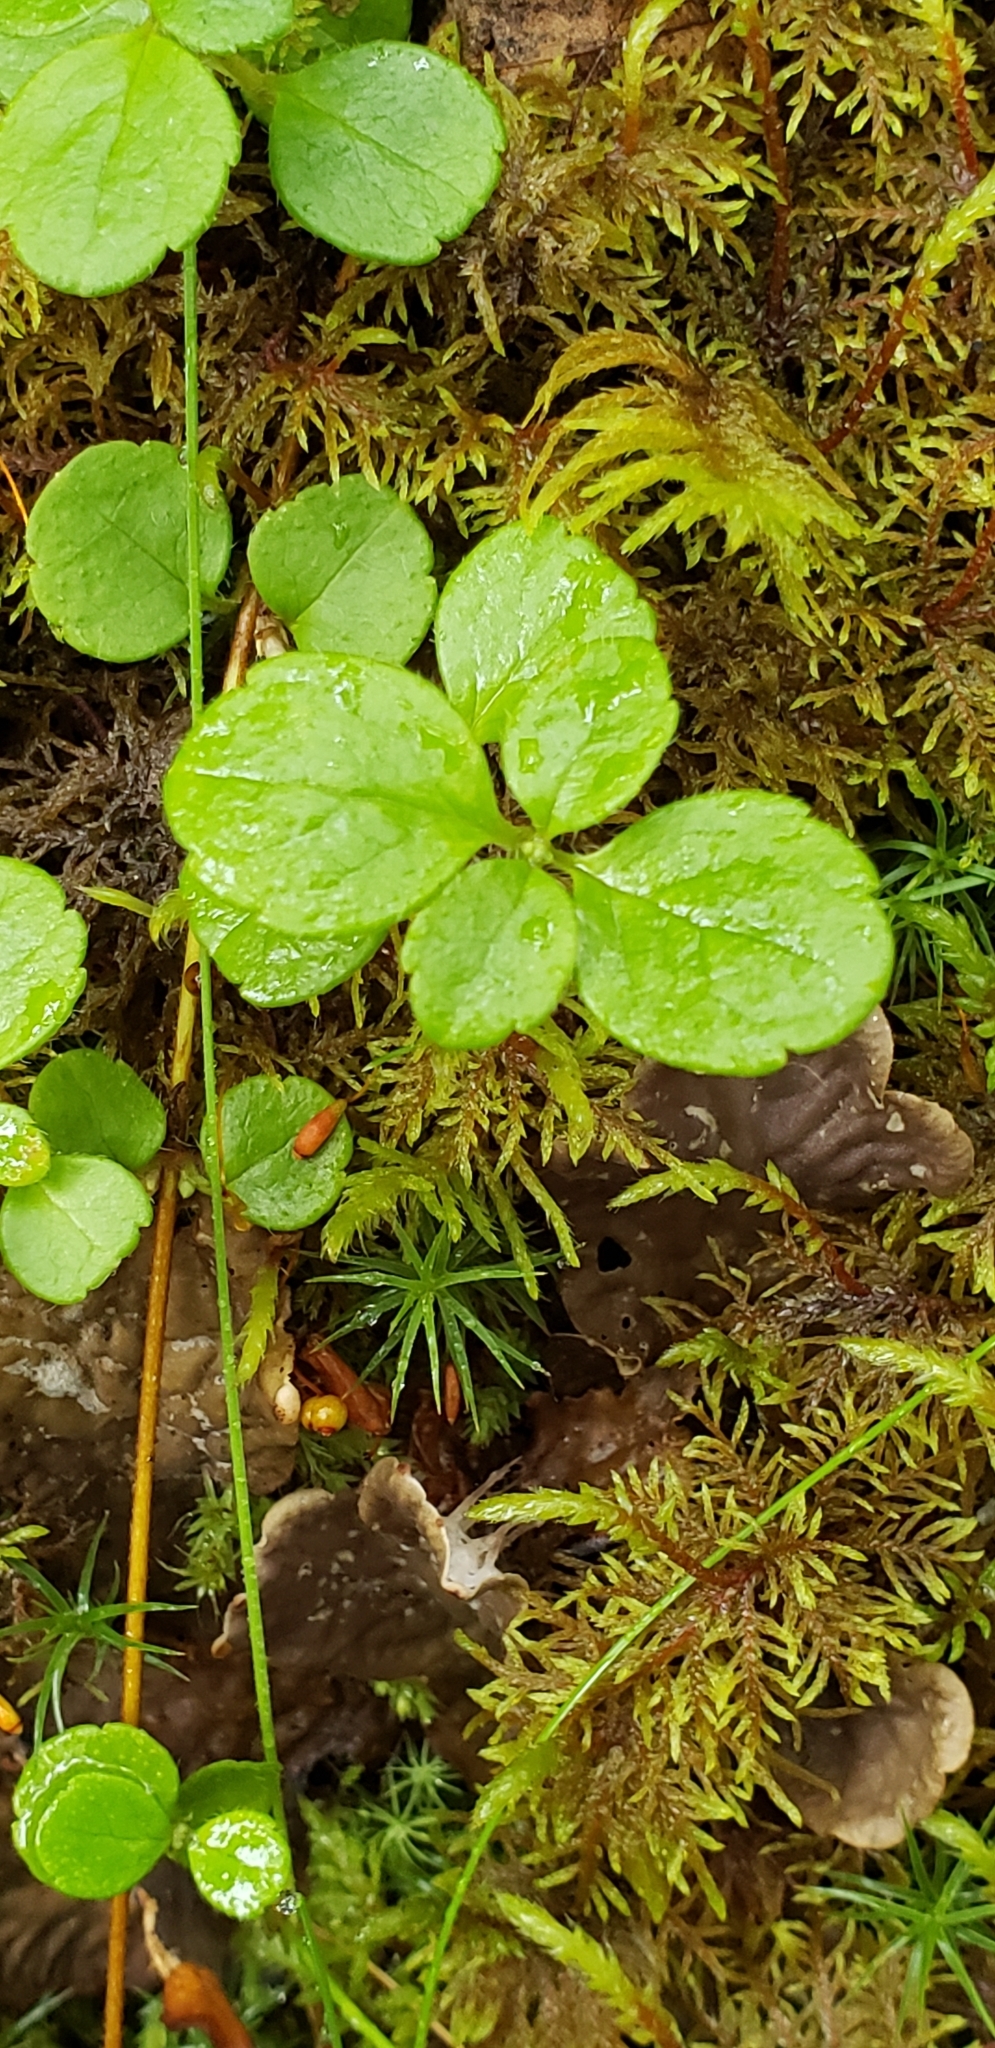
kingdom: Plantae
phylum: Tracheophyta
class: Magnoliopsida
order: Dipsacales
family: Caprifoliaceae
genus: Linnaea
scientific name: Linnaea borealis
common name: Twinflower
